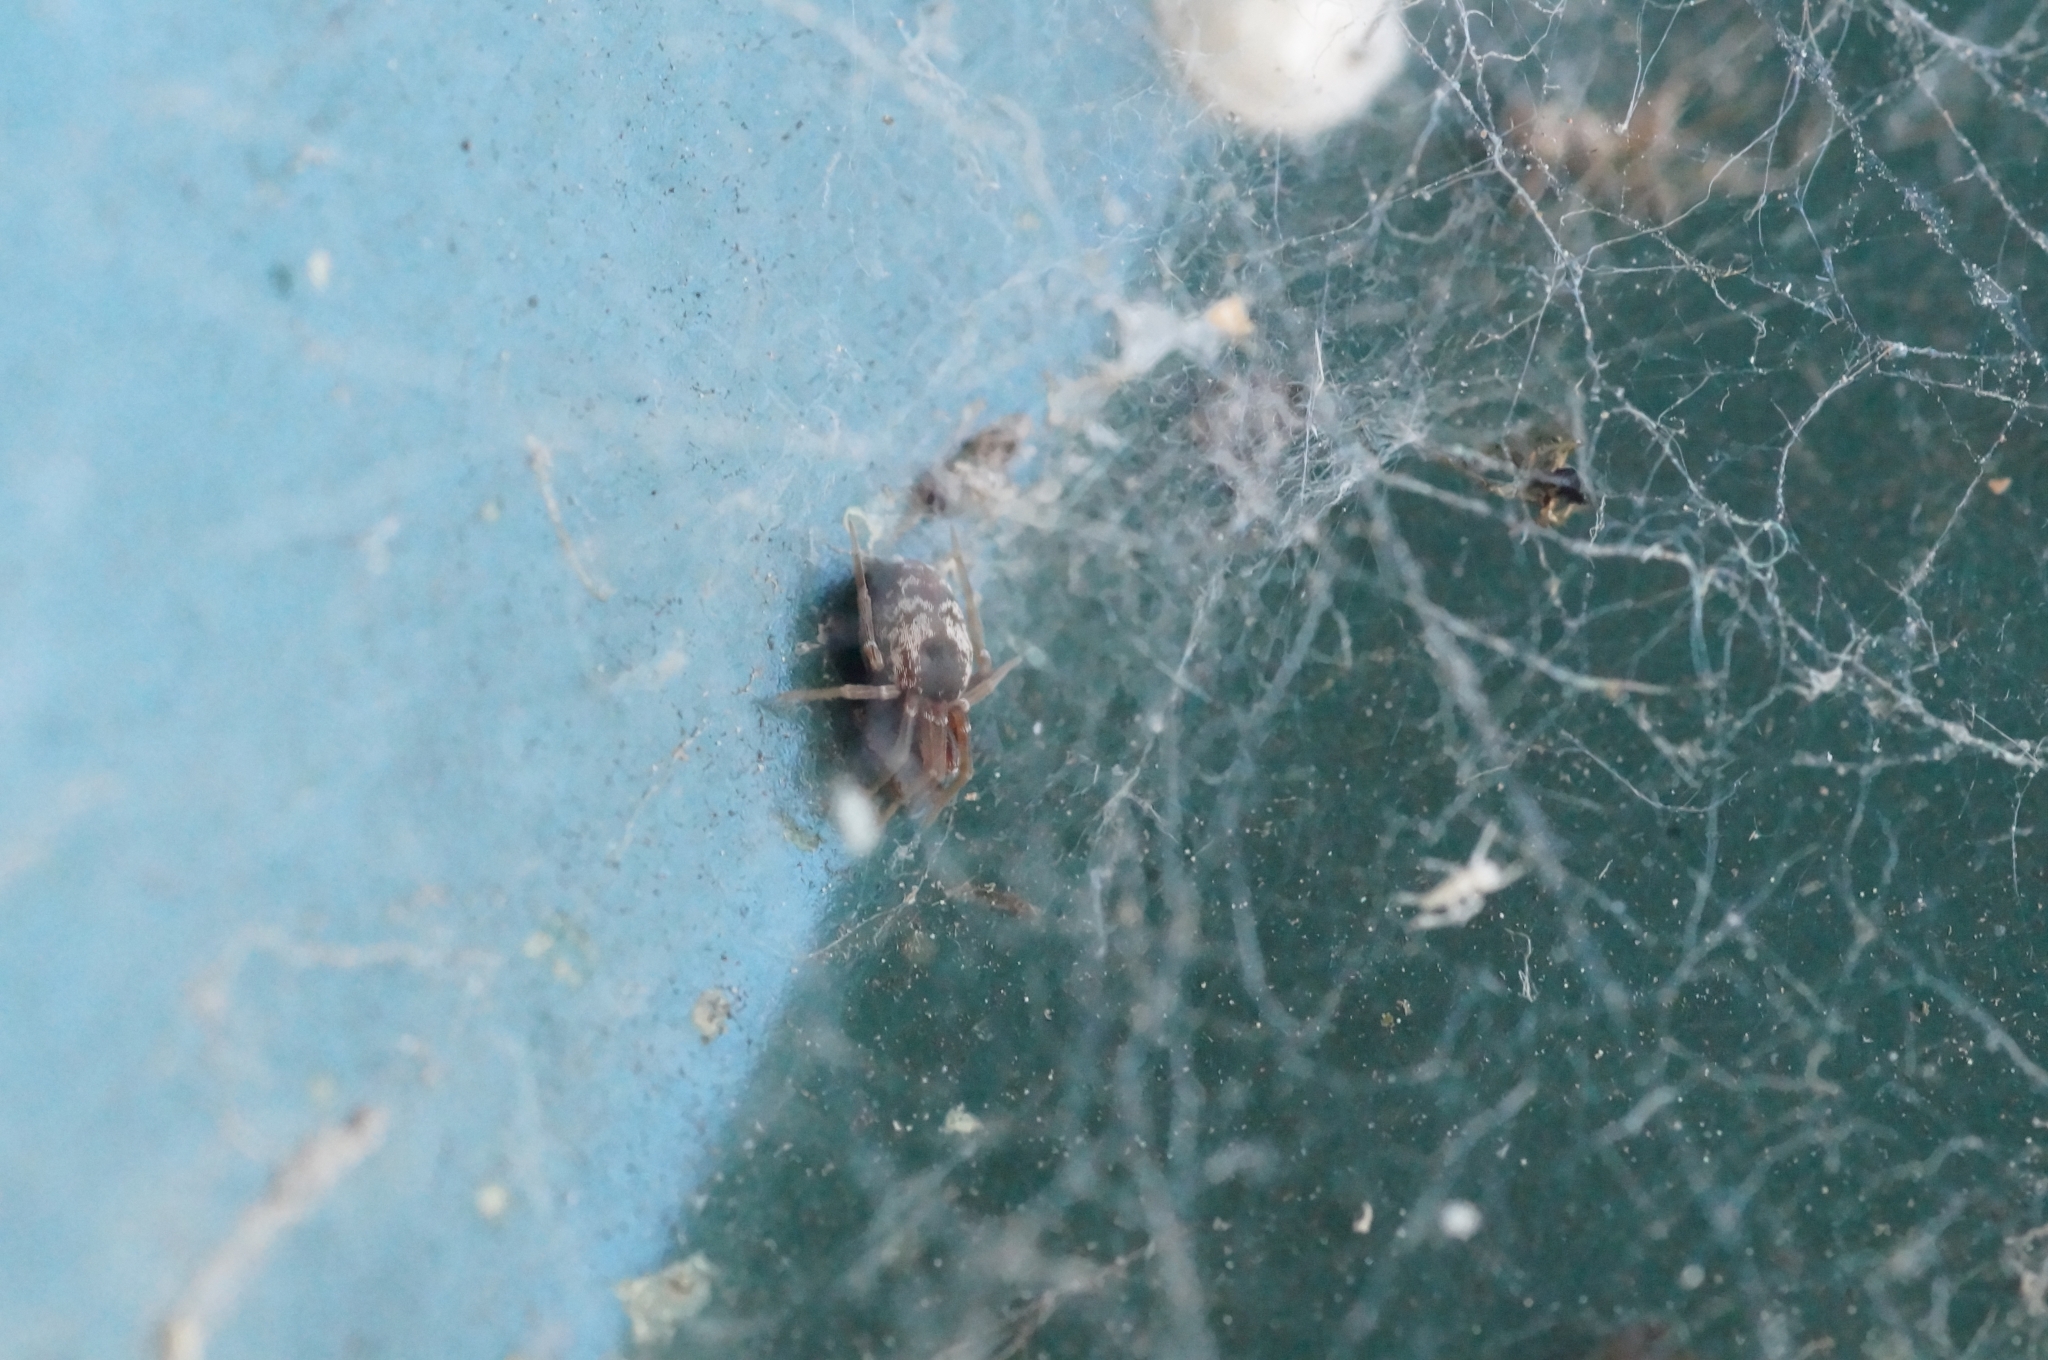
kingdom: Animalia
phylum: Arthropoda
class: Arachnida
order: Araneae
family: Dictynidae
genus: Brigittea
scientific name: Brigittea civica
